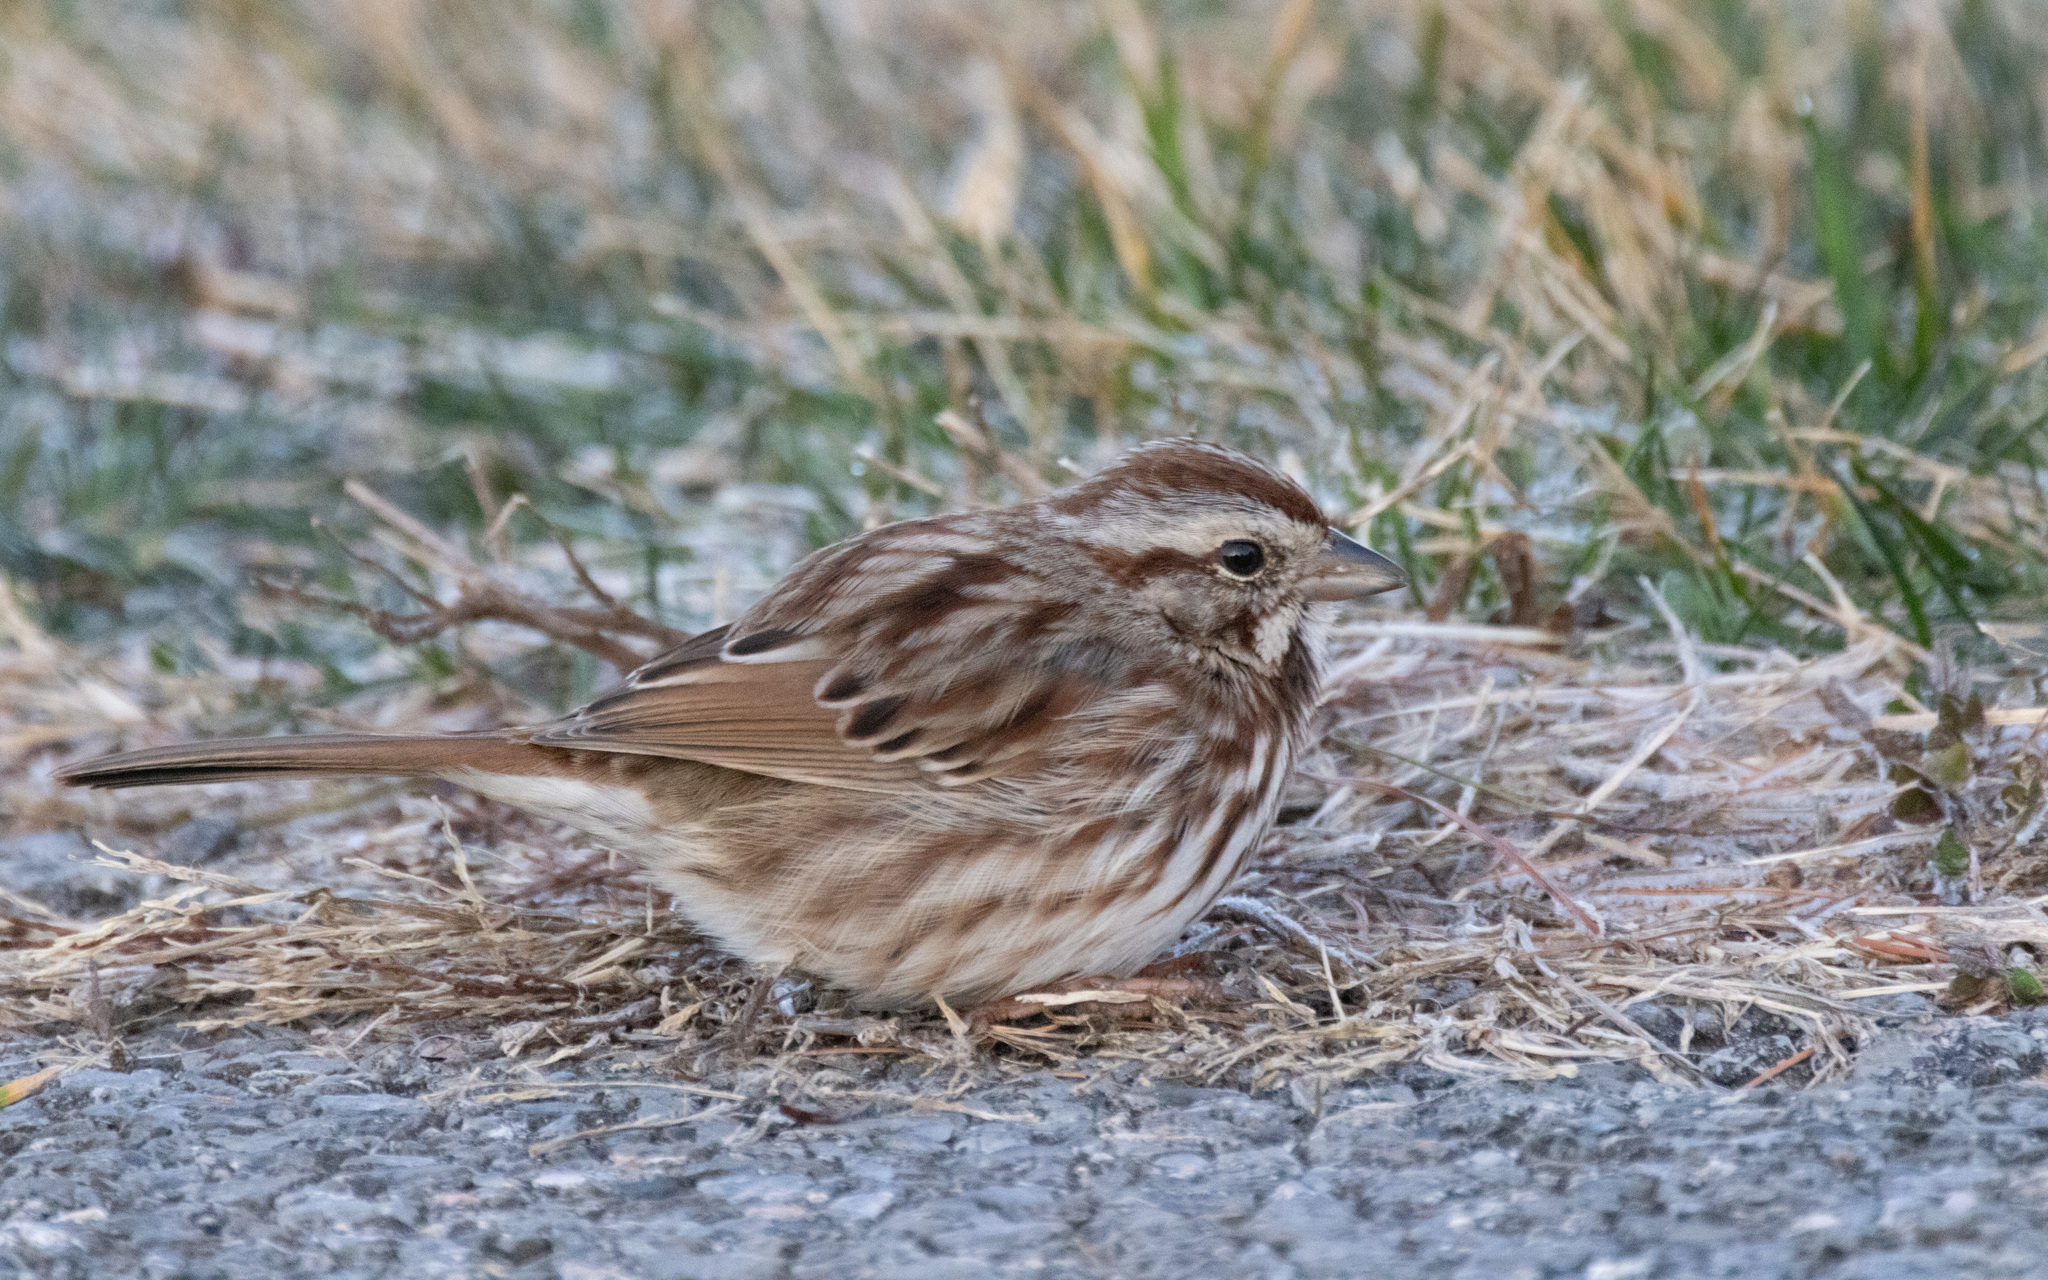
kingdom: Animalia
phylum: Chordata
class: Aves
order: Passeriformes
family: Passerellidae
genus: Melospiza
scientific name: Melospiza melodia
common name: Song sparrow
